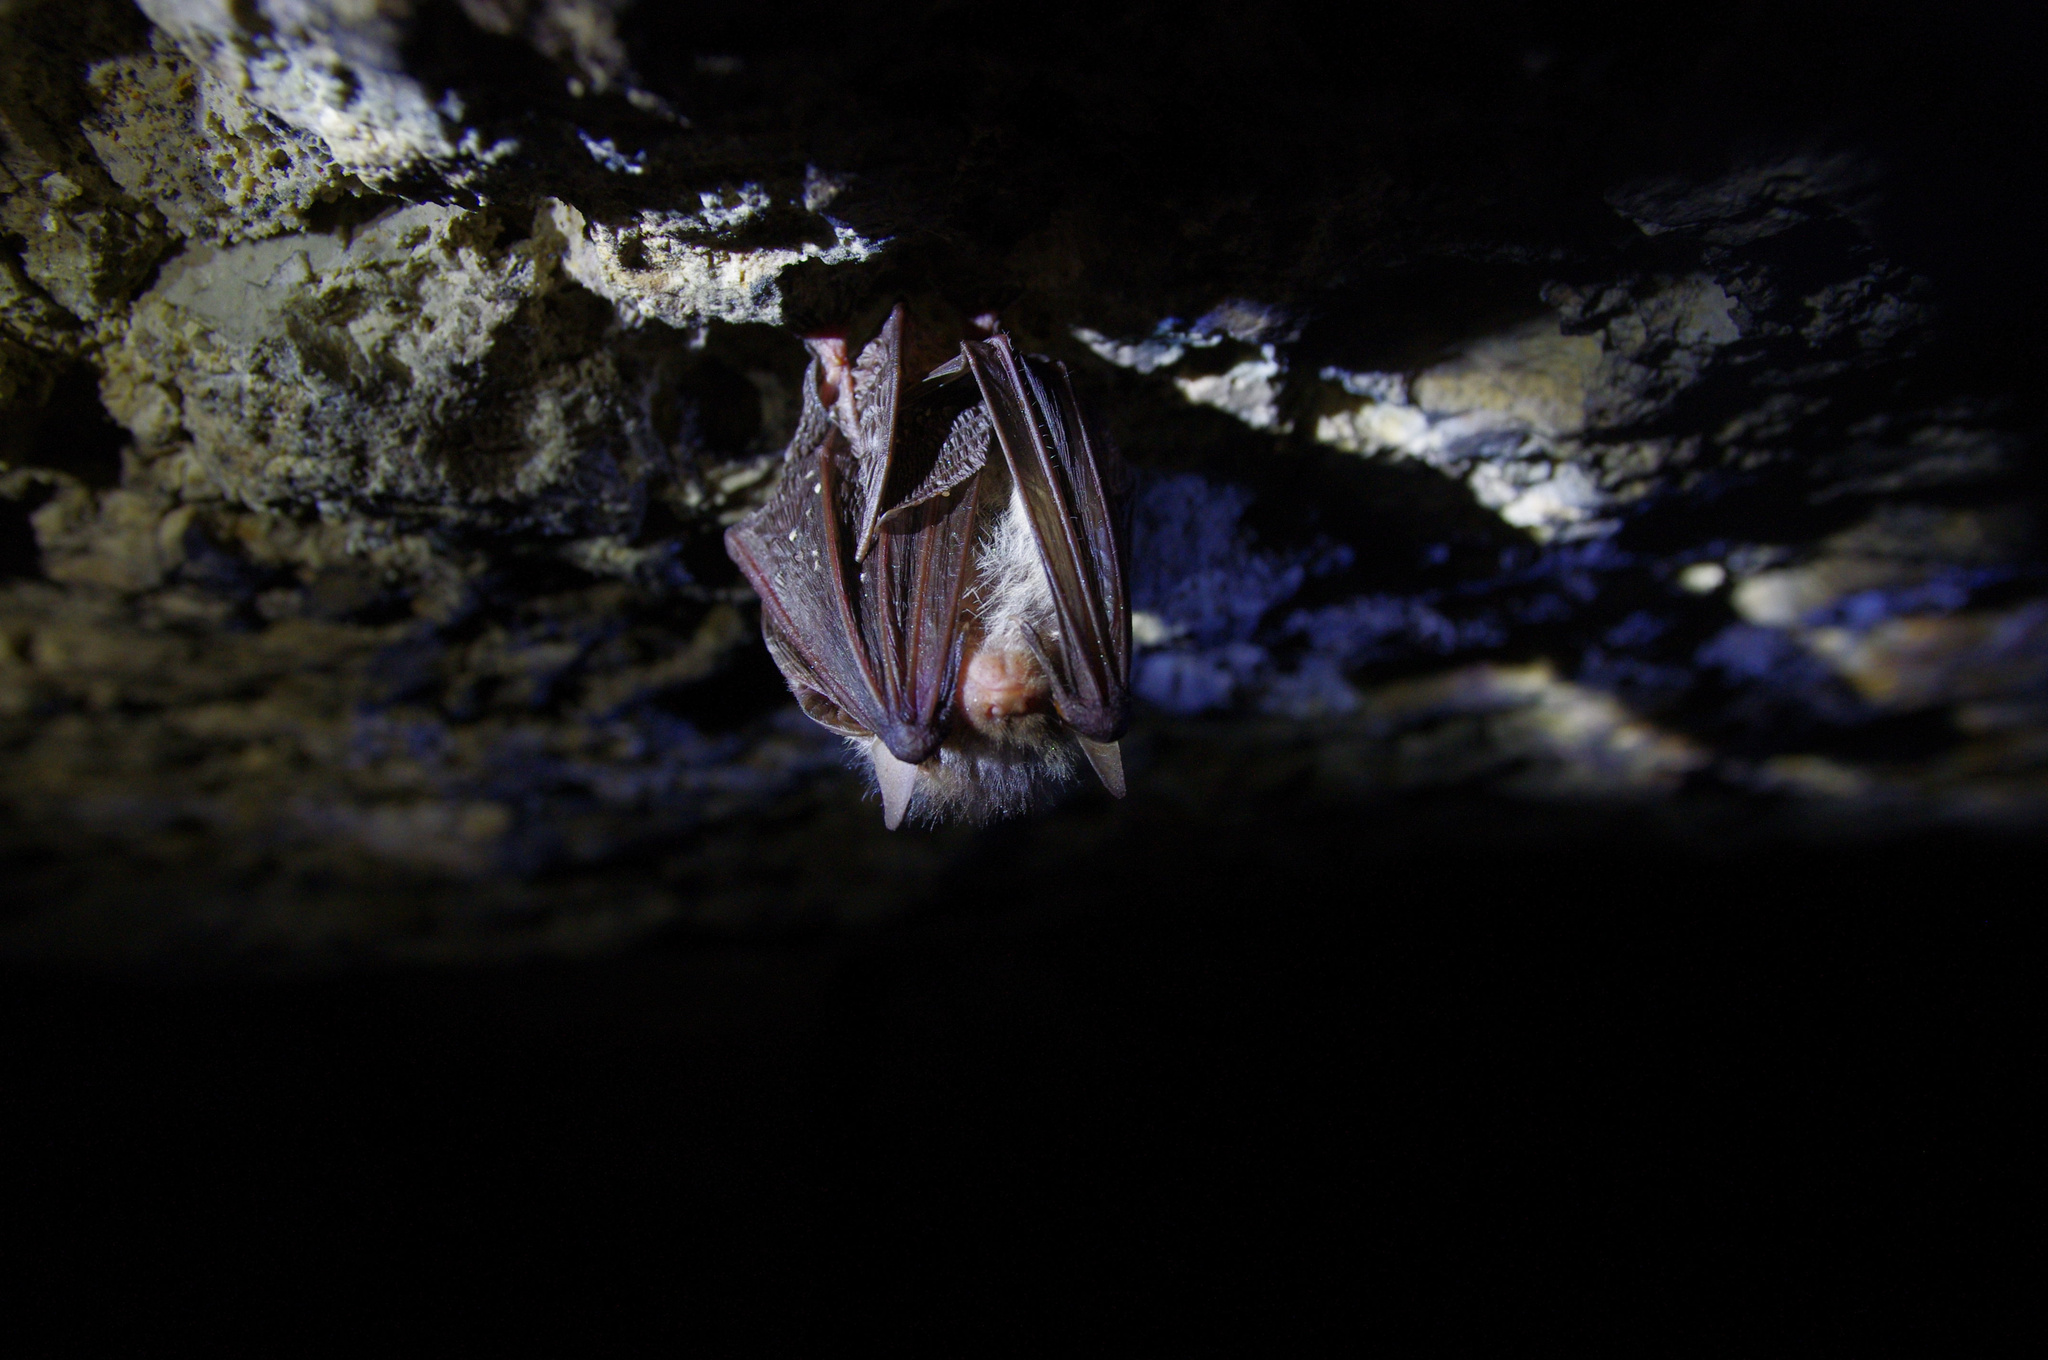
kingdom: Animalia
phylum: Chordata
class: Mammalia
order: Chiroptera
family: Vespertilionidae
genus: Plecotus
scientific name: Plecotus auritus
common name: Brown long-eared bat
